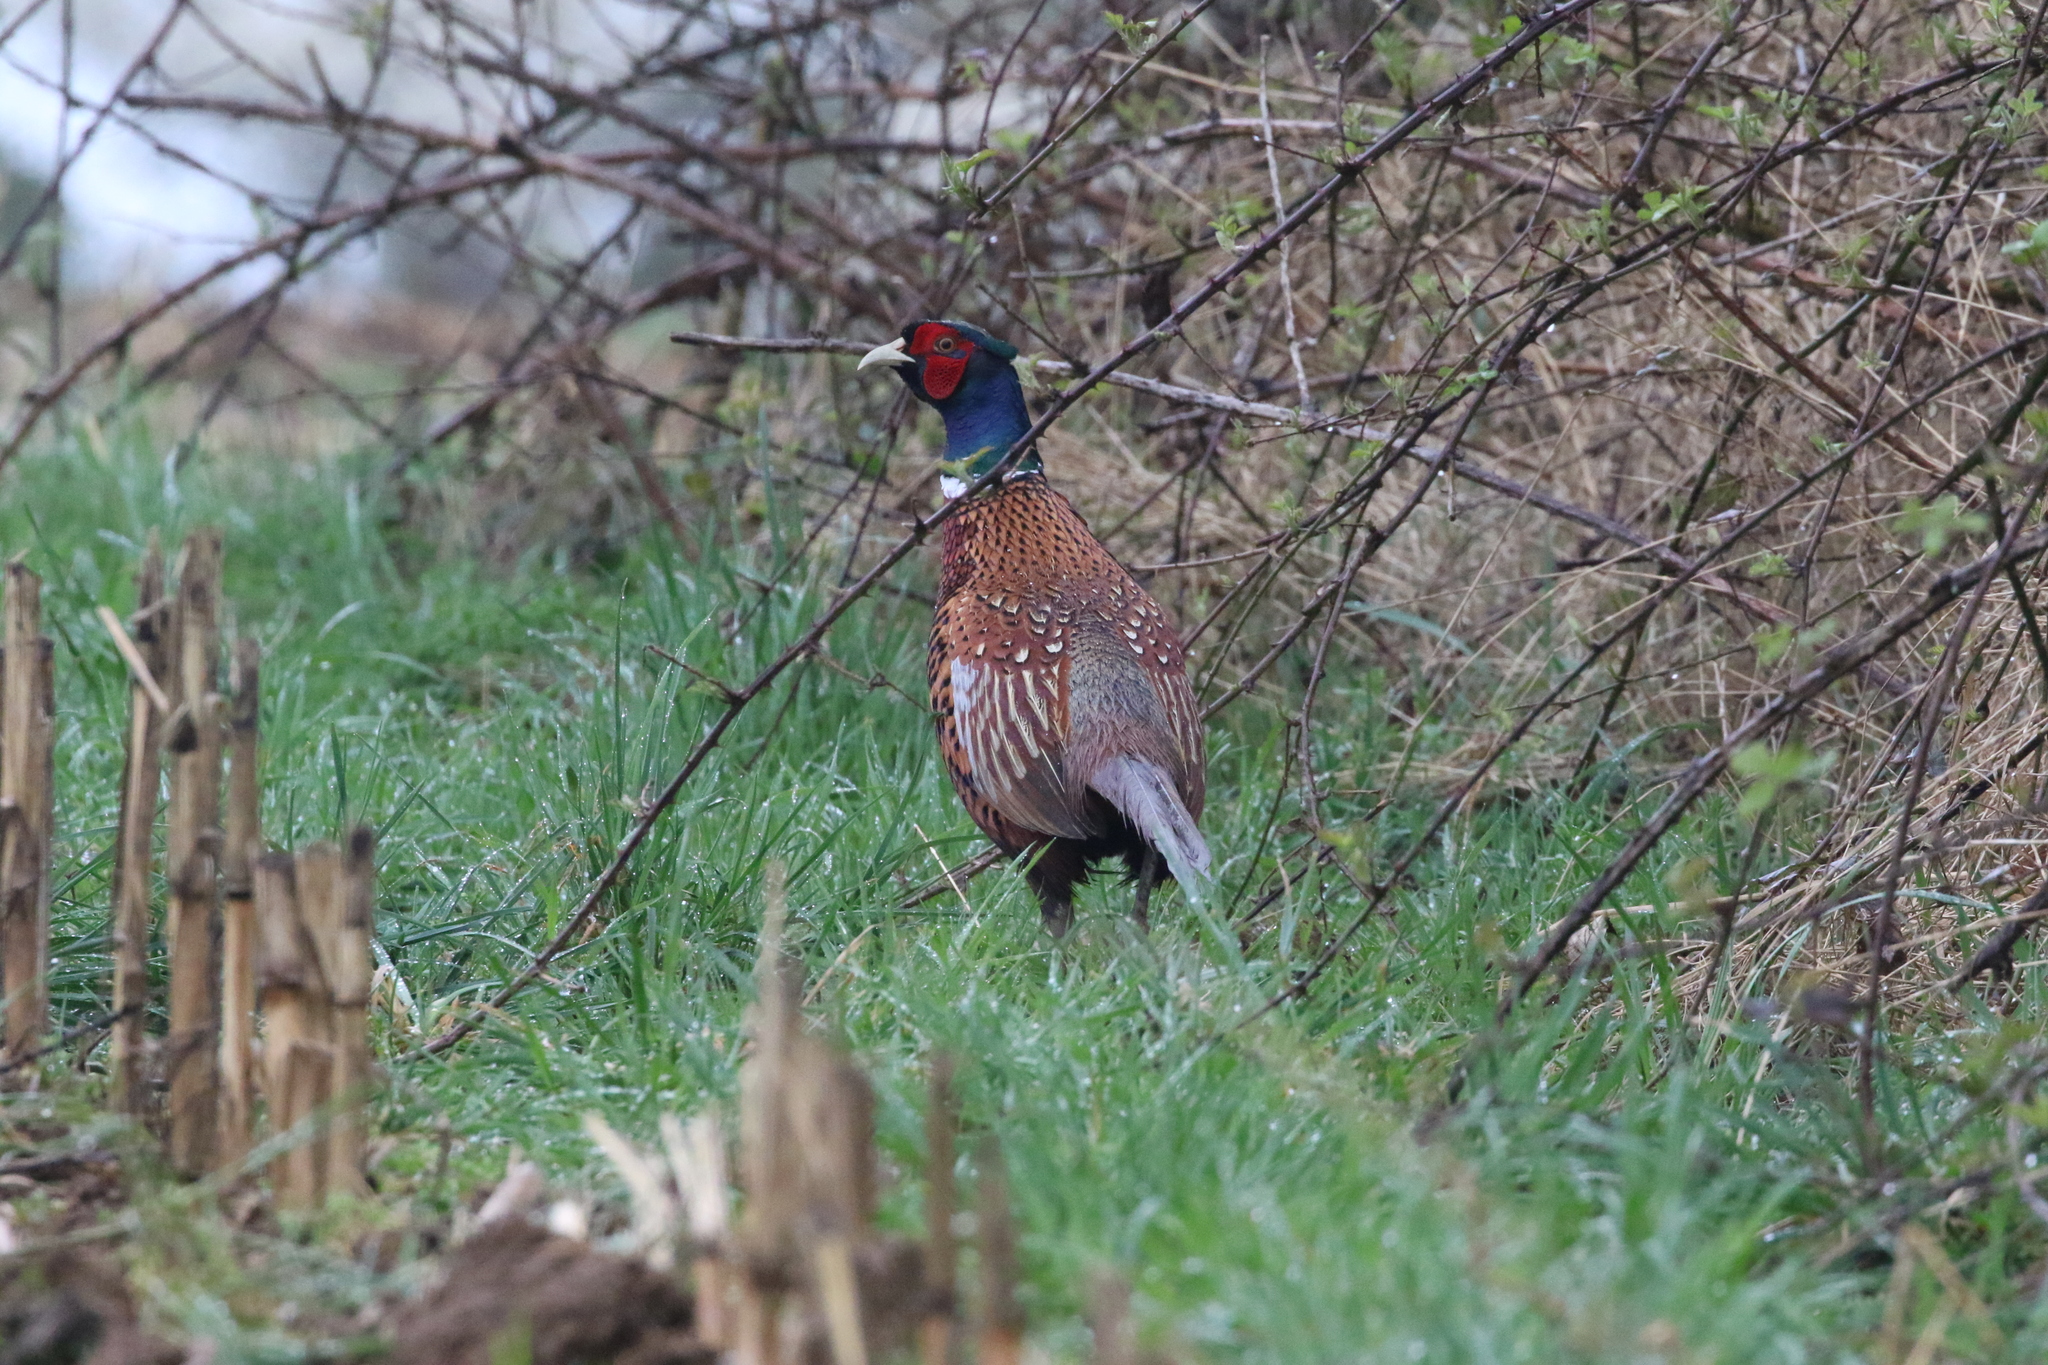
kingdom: Animalia
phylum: Chordata
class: Aves
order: Galliformes
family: Phasianidae
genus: Phasianus
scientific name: Phasianus colchicus
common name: Common pheasant
